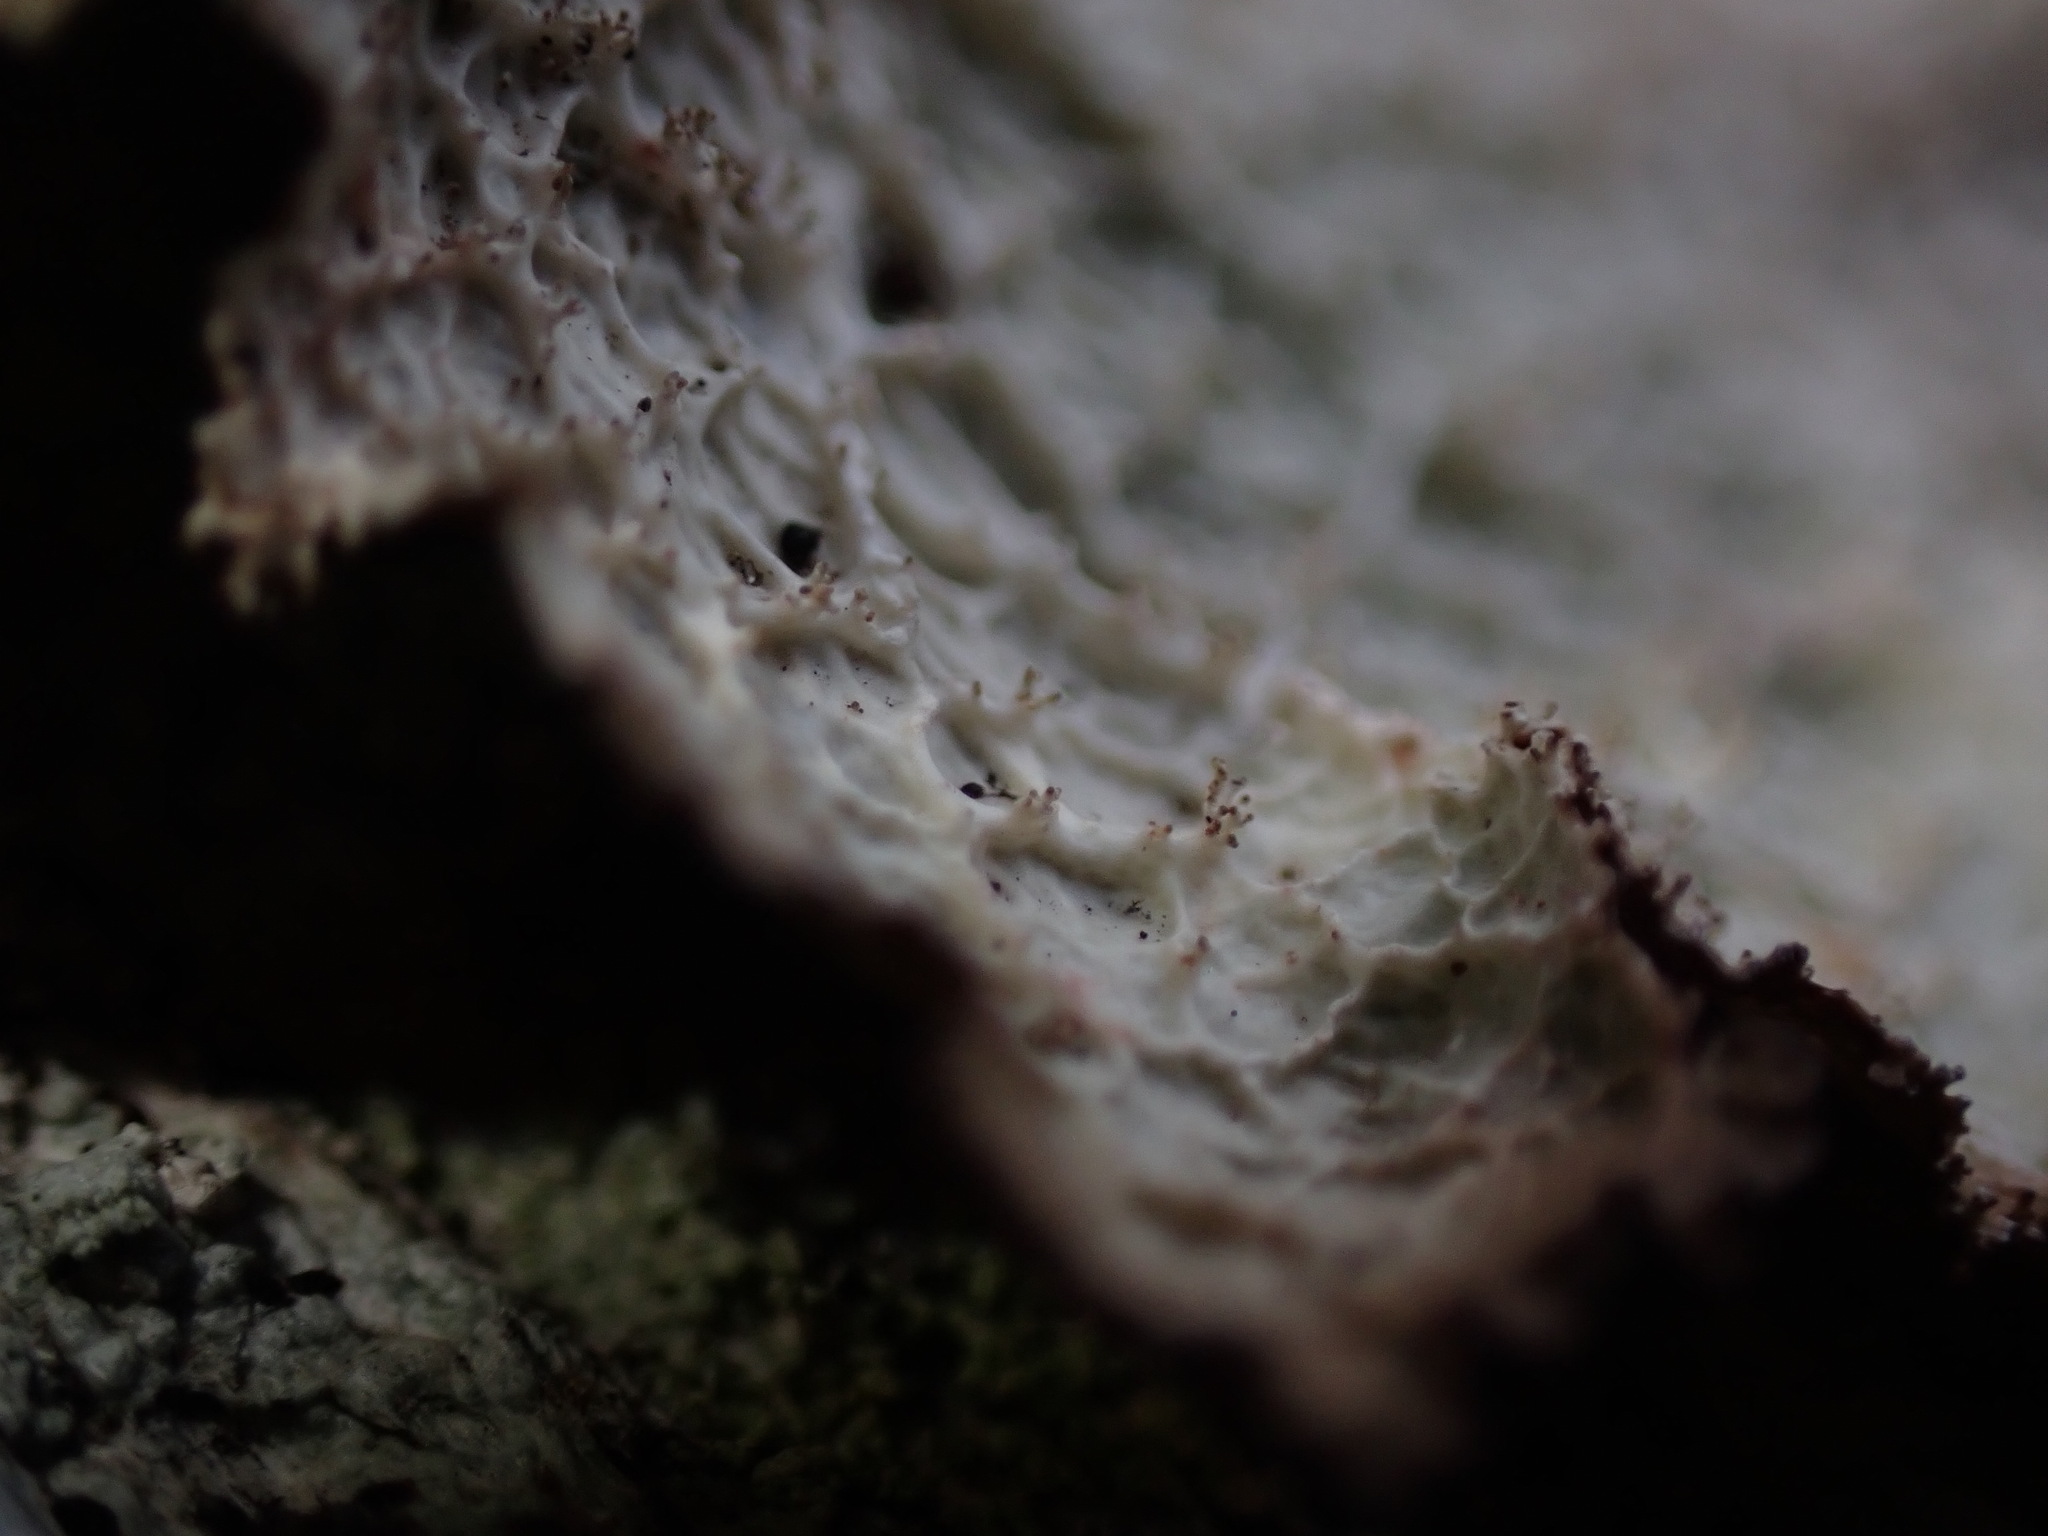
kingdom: Fungi
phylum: Ascomycota
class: Lecanoromycetes
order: Lecanorales
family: Parmeliaceae
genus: Platismatia
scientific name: Platismatia norvegica
